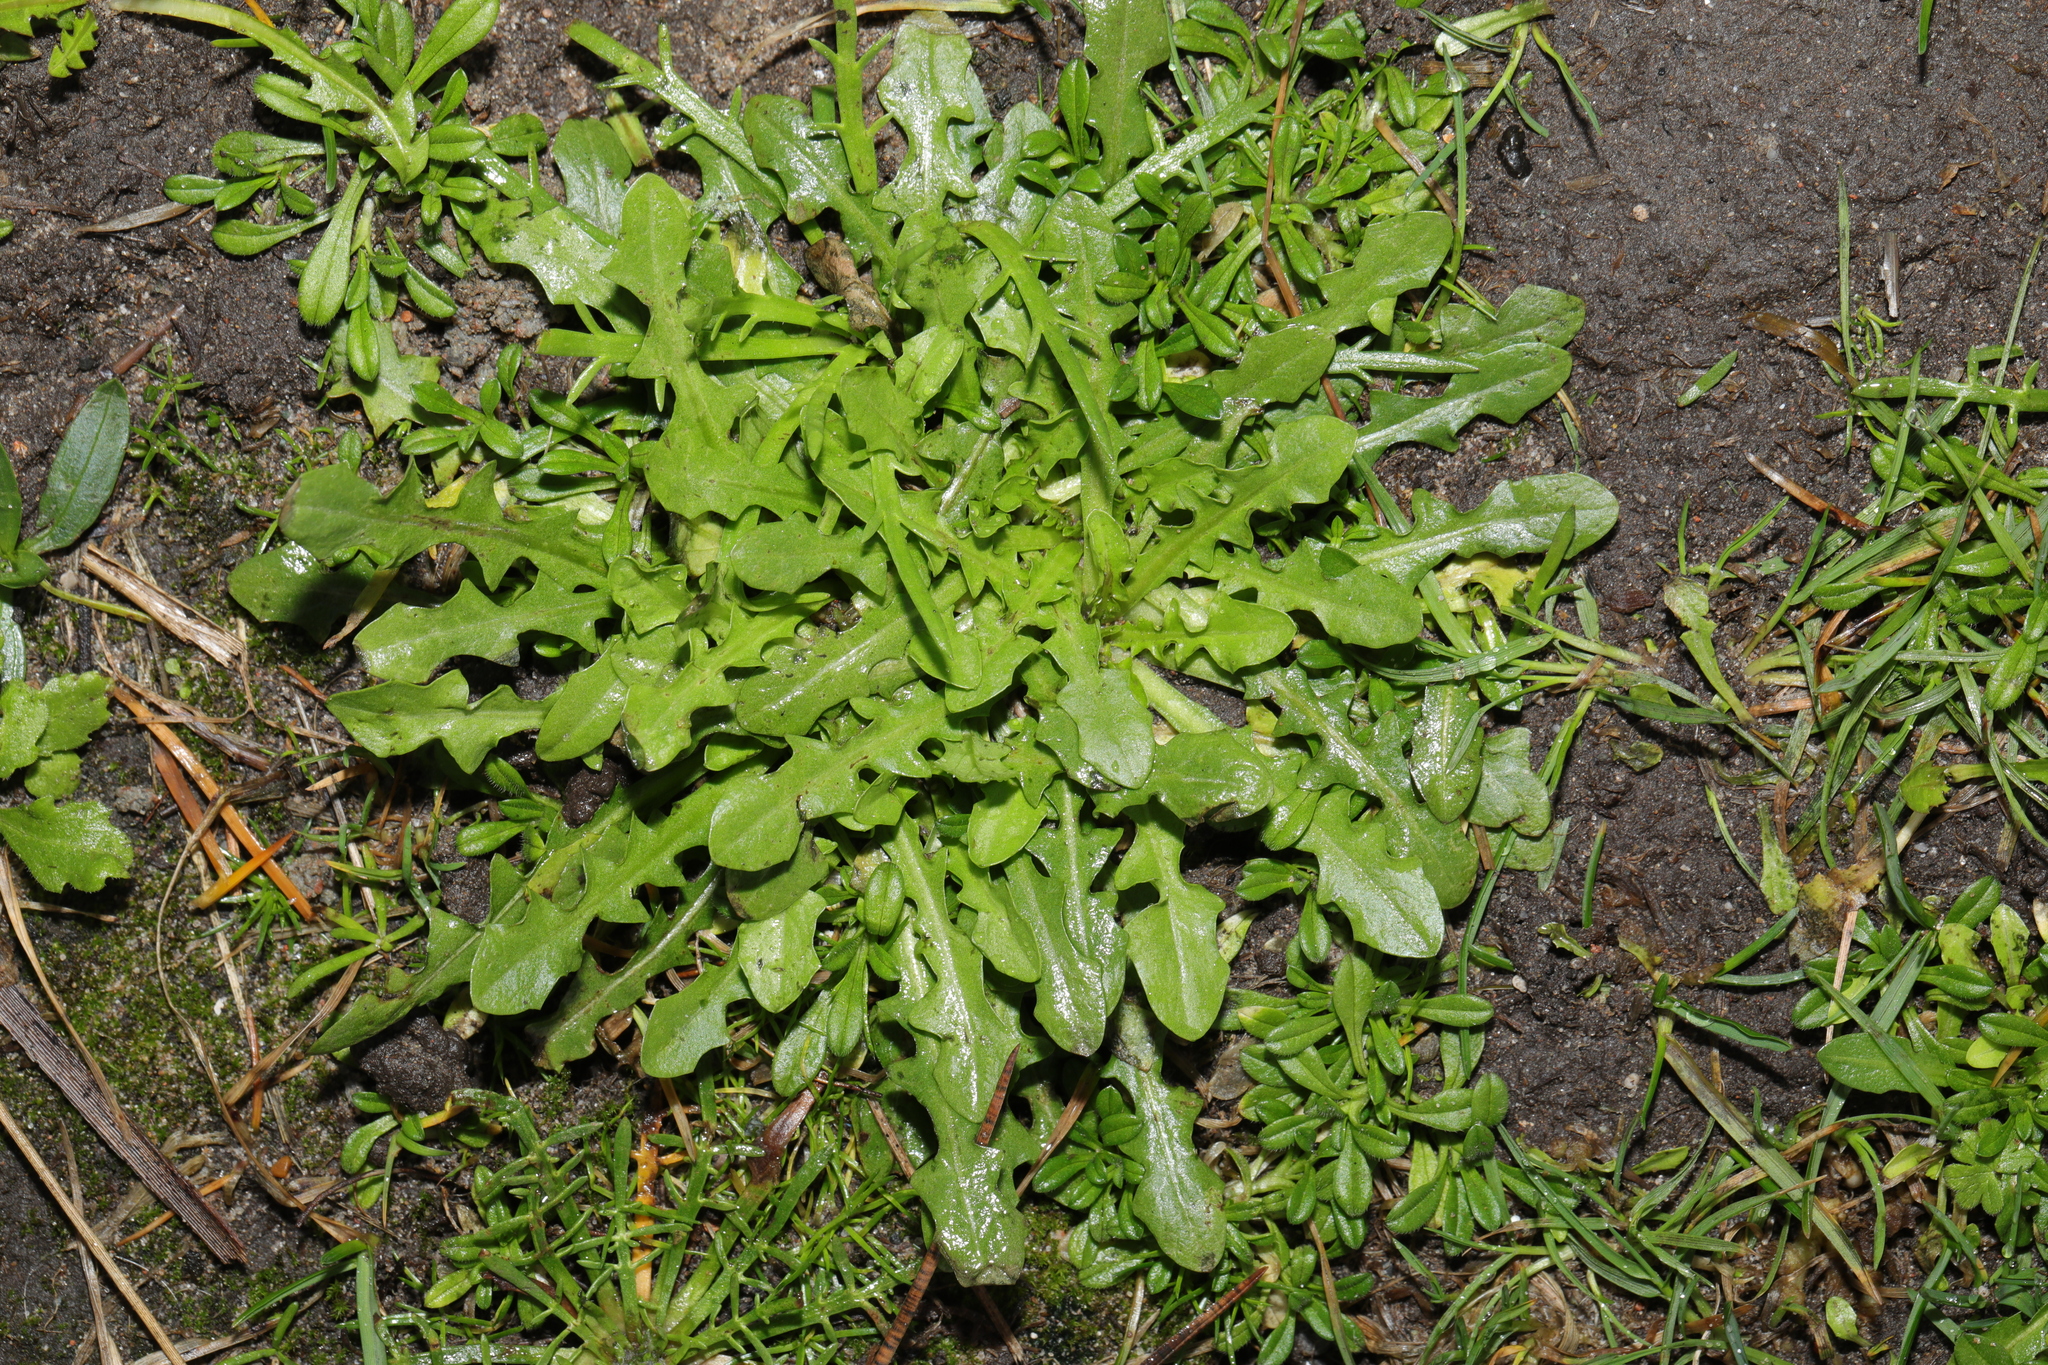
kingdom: Plantae
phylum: Tracheophyta
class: Magnoliopsida
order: Asterales
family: Asteraceae
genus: Hypochaeris
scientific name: Hypochaeris radicata
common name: Flatweed
